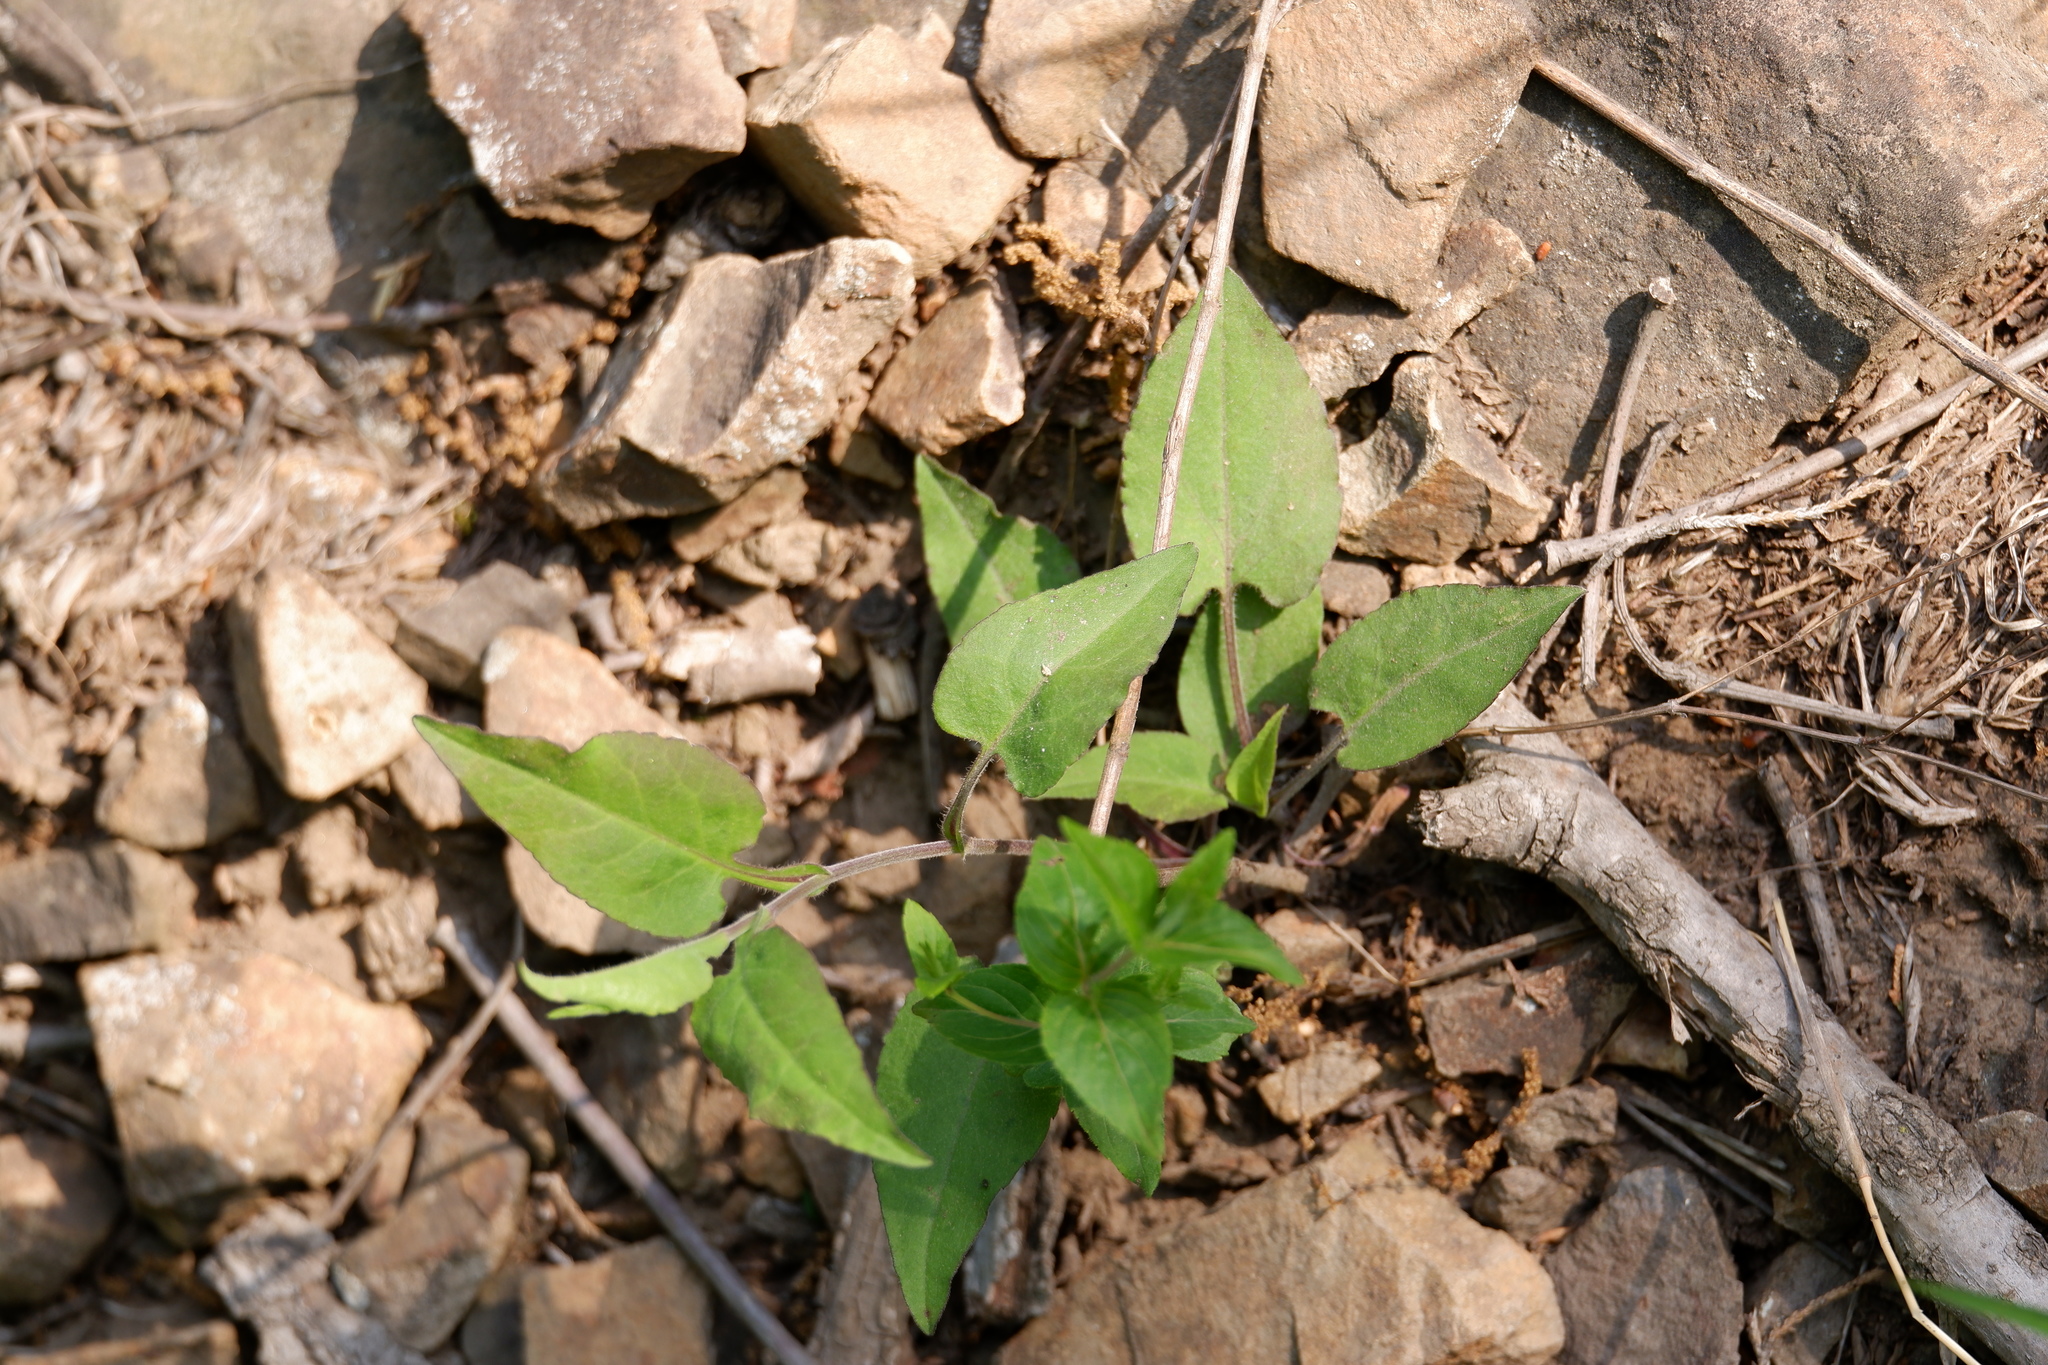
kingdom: Plantae
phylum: Tracheophyta
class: Magnoliopsida
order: Asterales
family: Asteraceae
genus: Symphyotrichum
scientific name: Symphyotrichum undulatum
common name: Clasping heart-leaf aster
